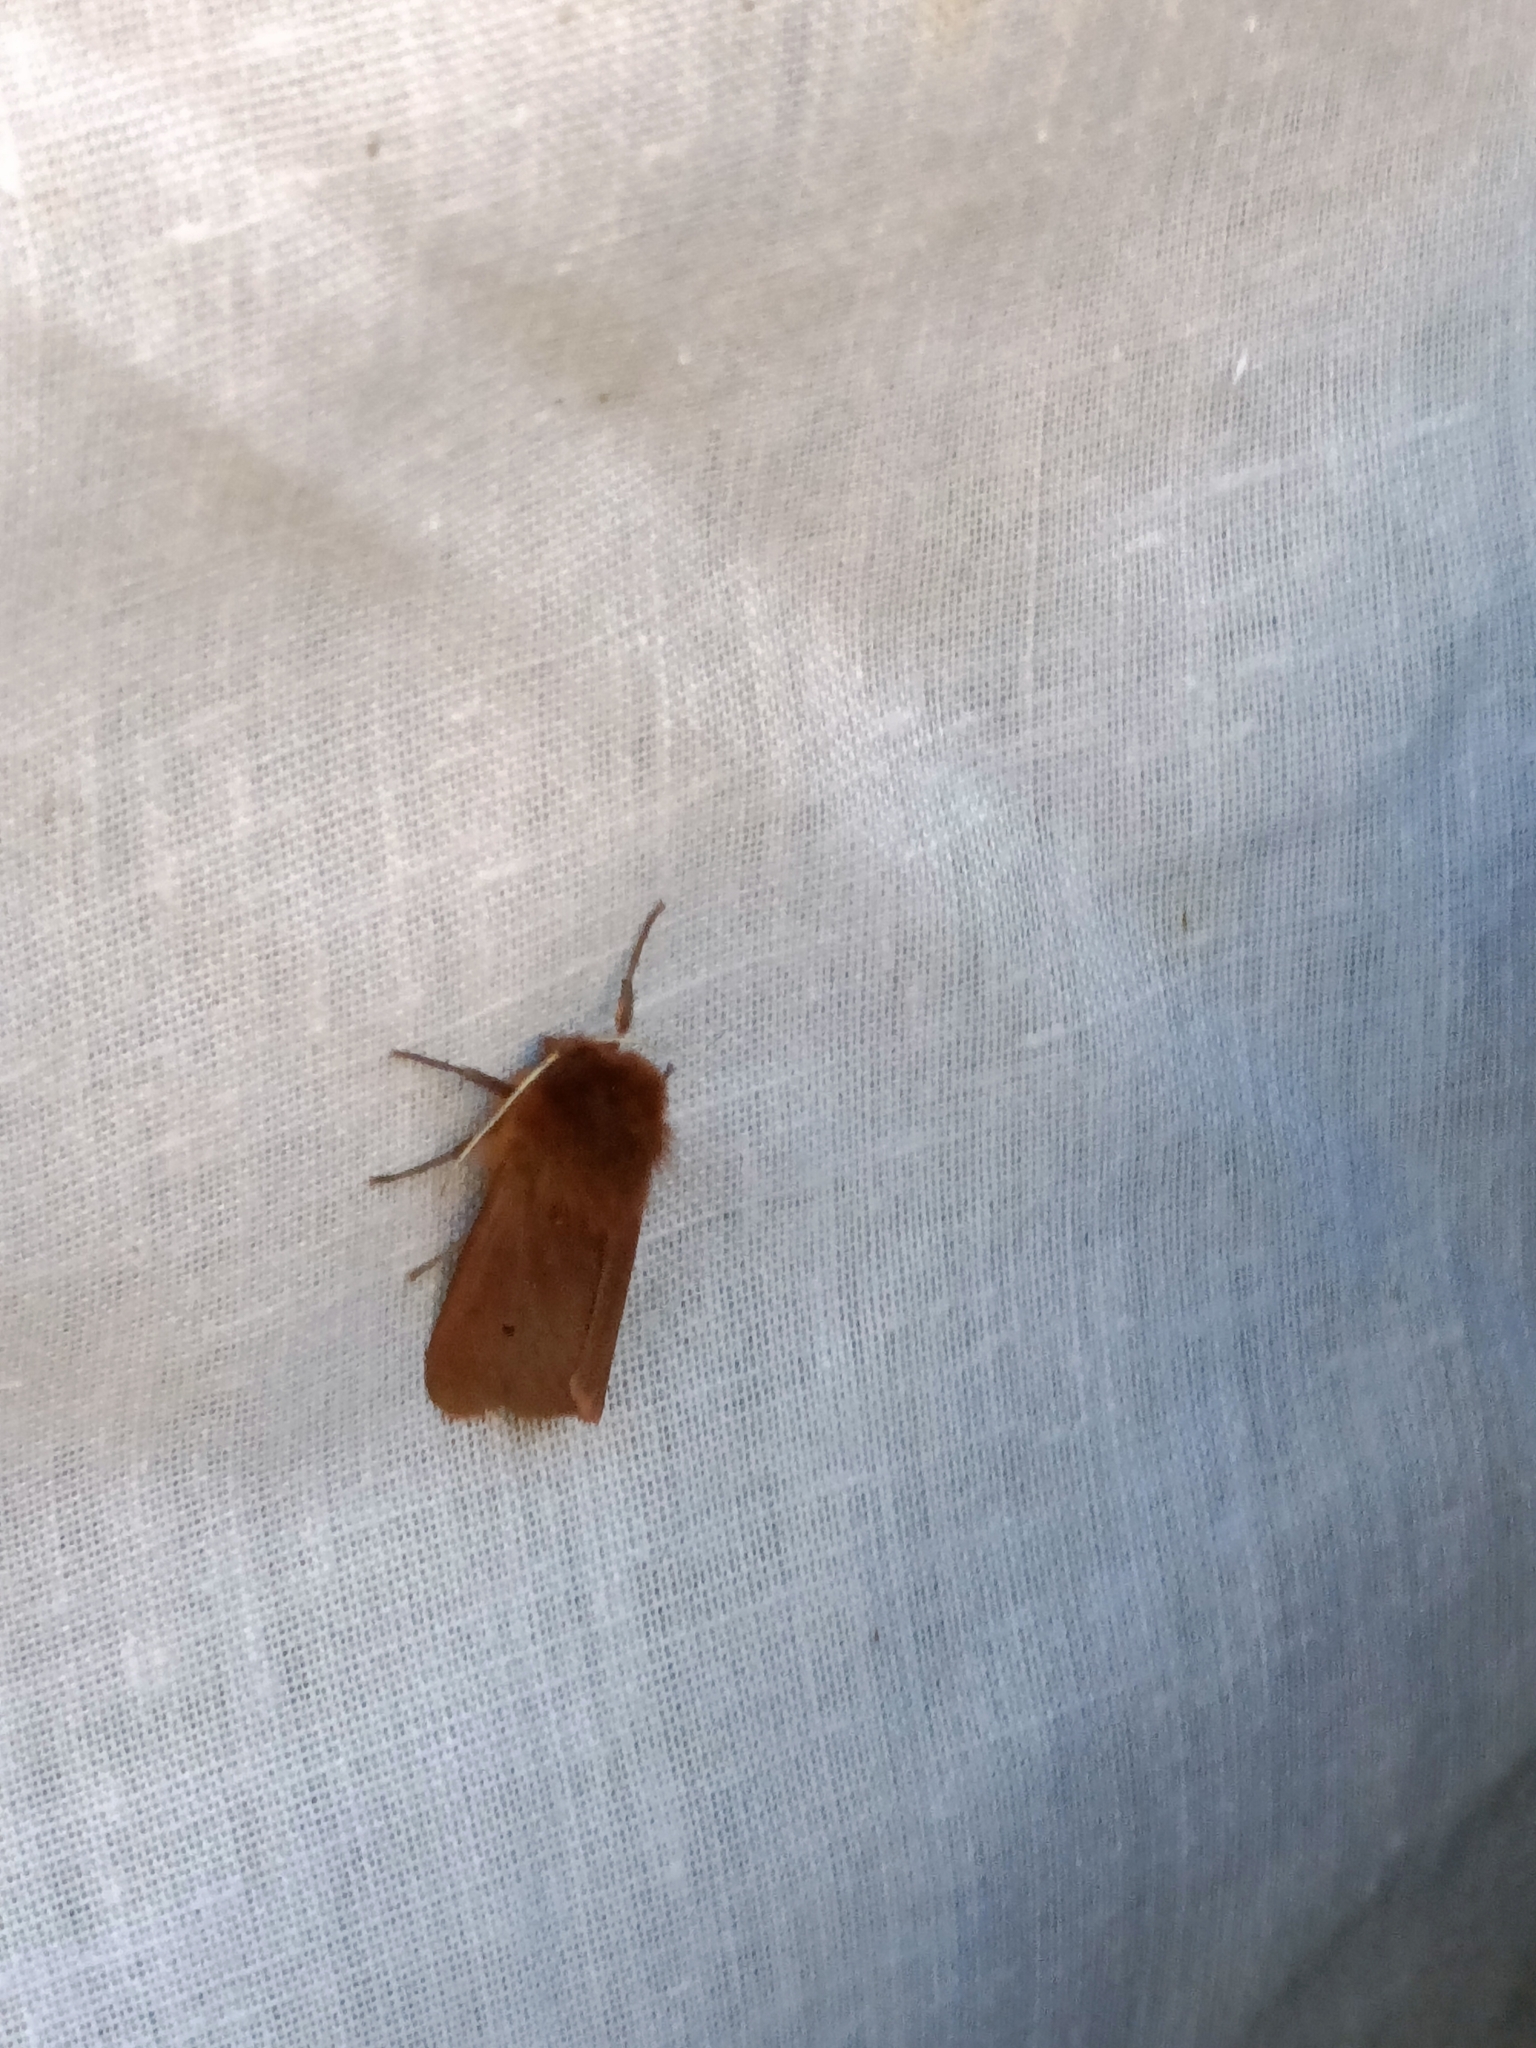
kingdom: Animalia
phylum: Arthropoda
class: Insecta
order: Lepidoptera
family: Erebidae
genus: Phragmatobia
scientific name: Phragmatobia fuliginosa
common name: Ruby tiger
